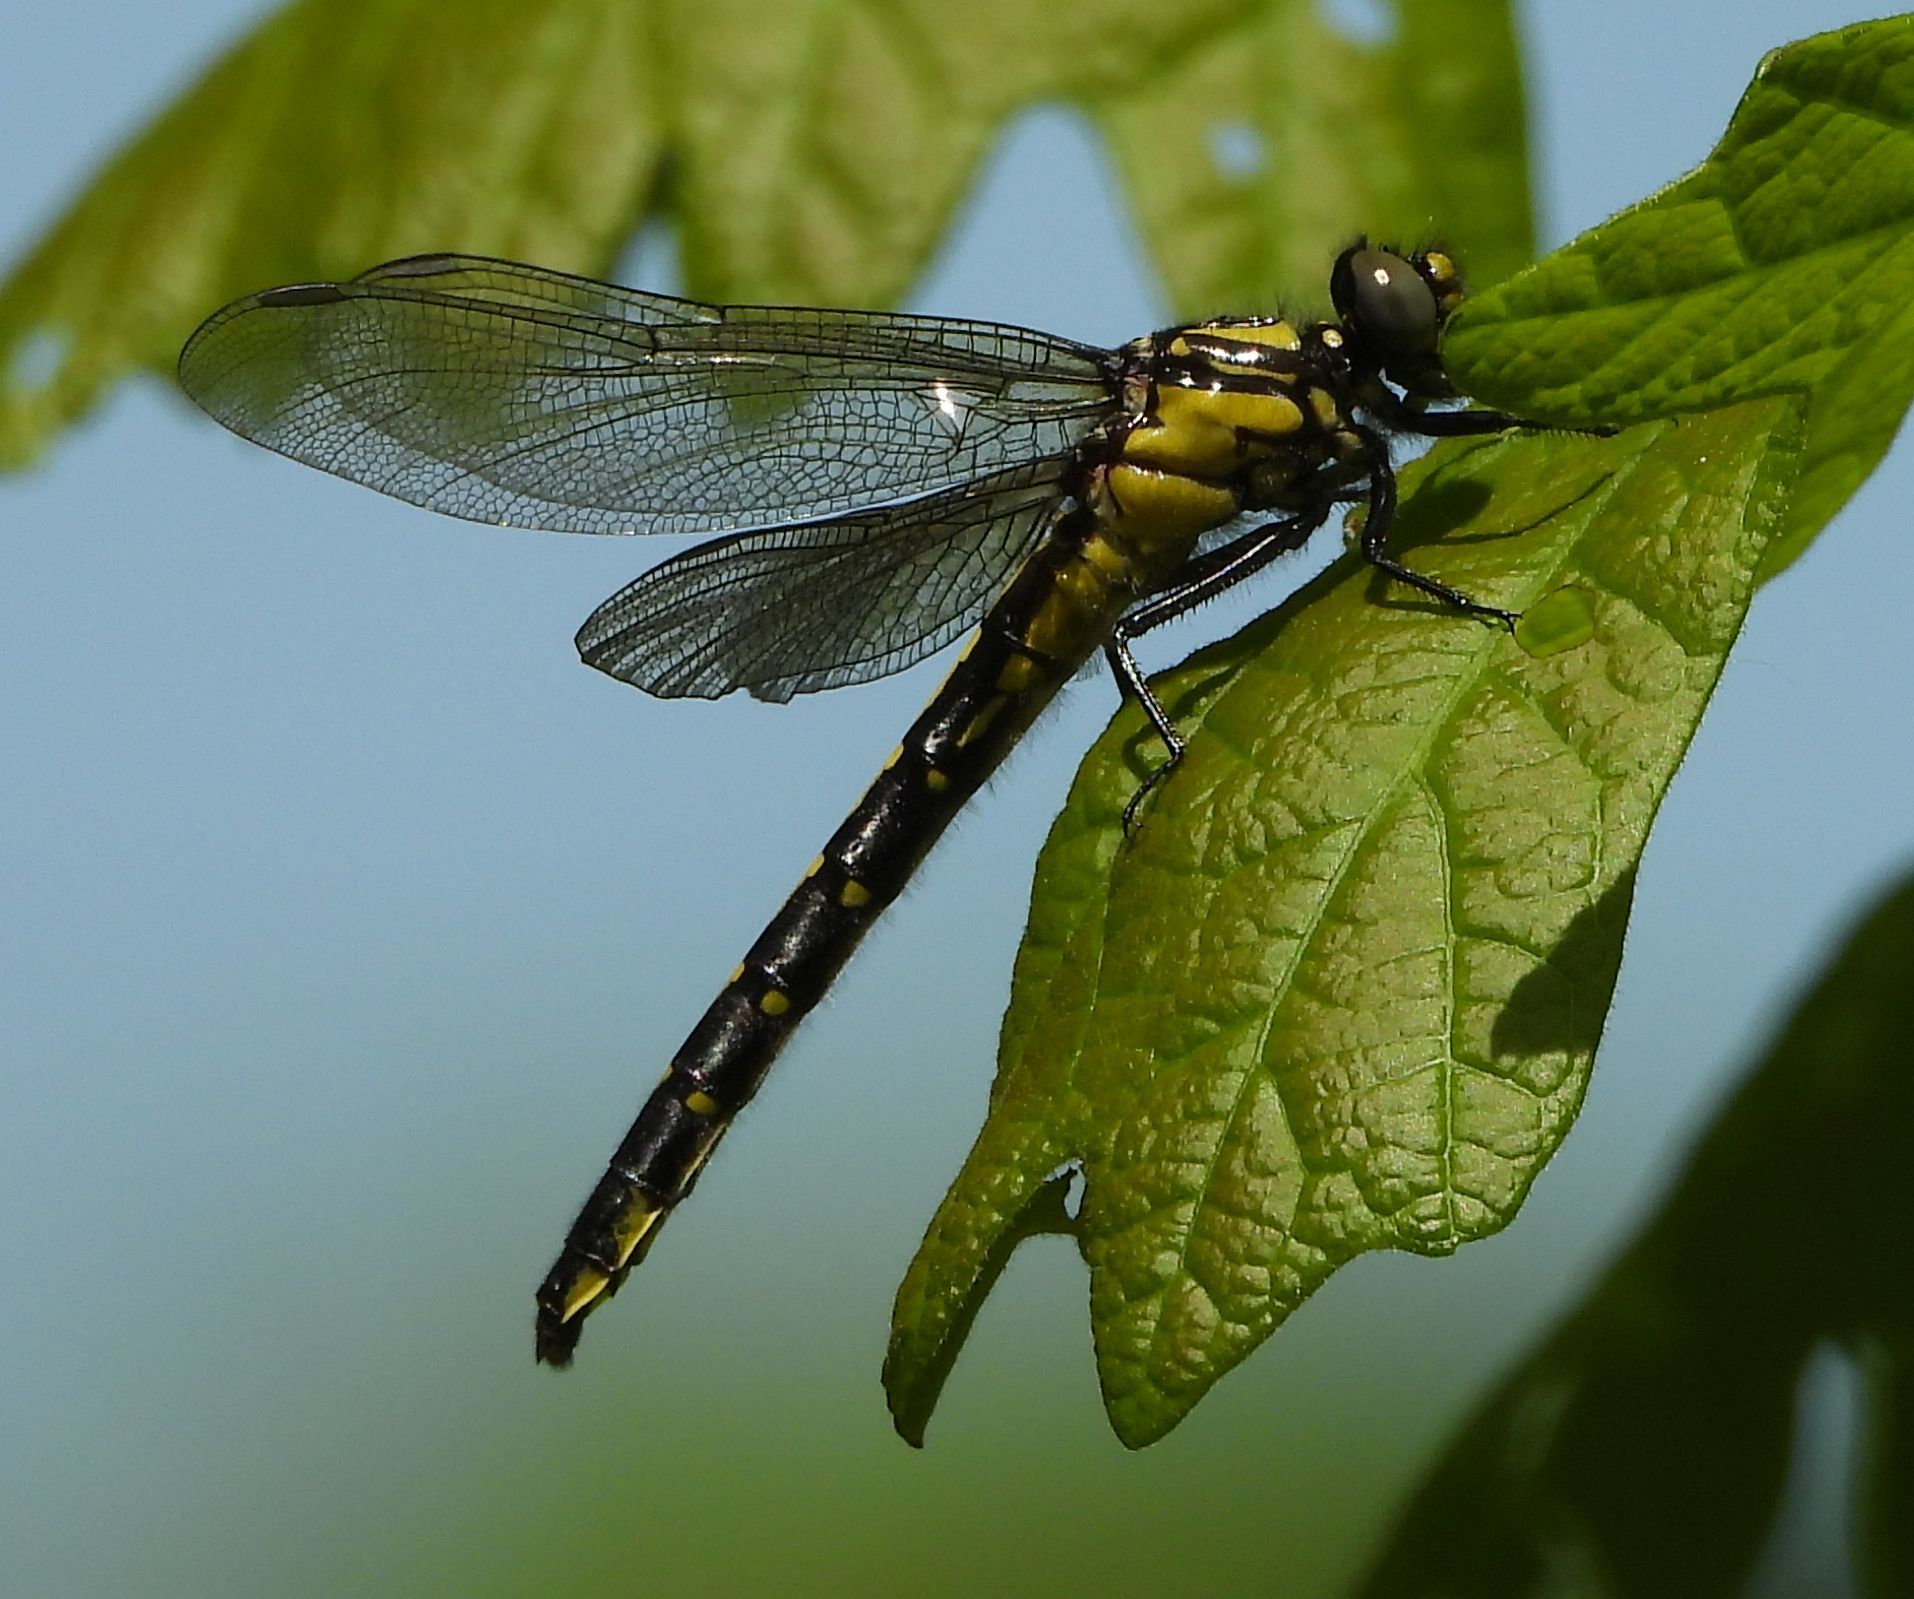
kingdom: Animalia
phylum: Arthropoda
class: Insecta
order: Odonata
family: Gomphidae
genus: Hylogomphus
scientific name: Hylogomphus adelphus
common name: Mustached clubtail
